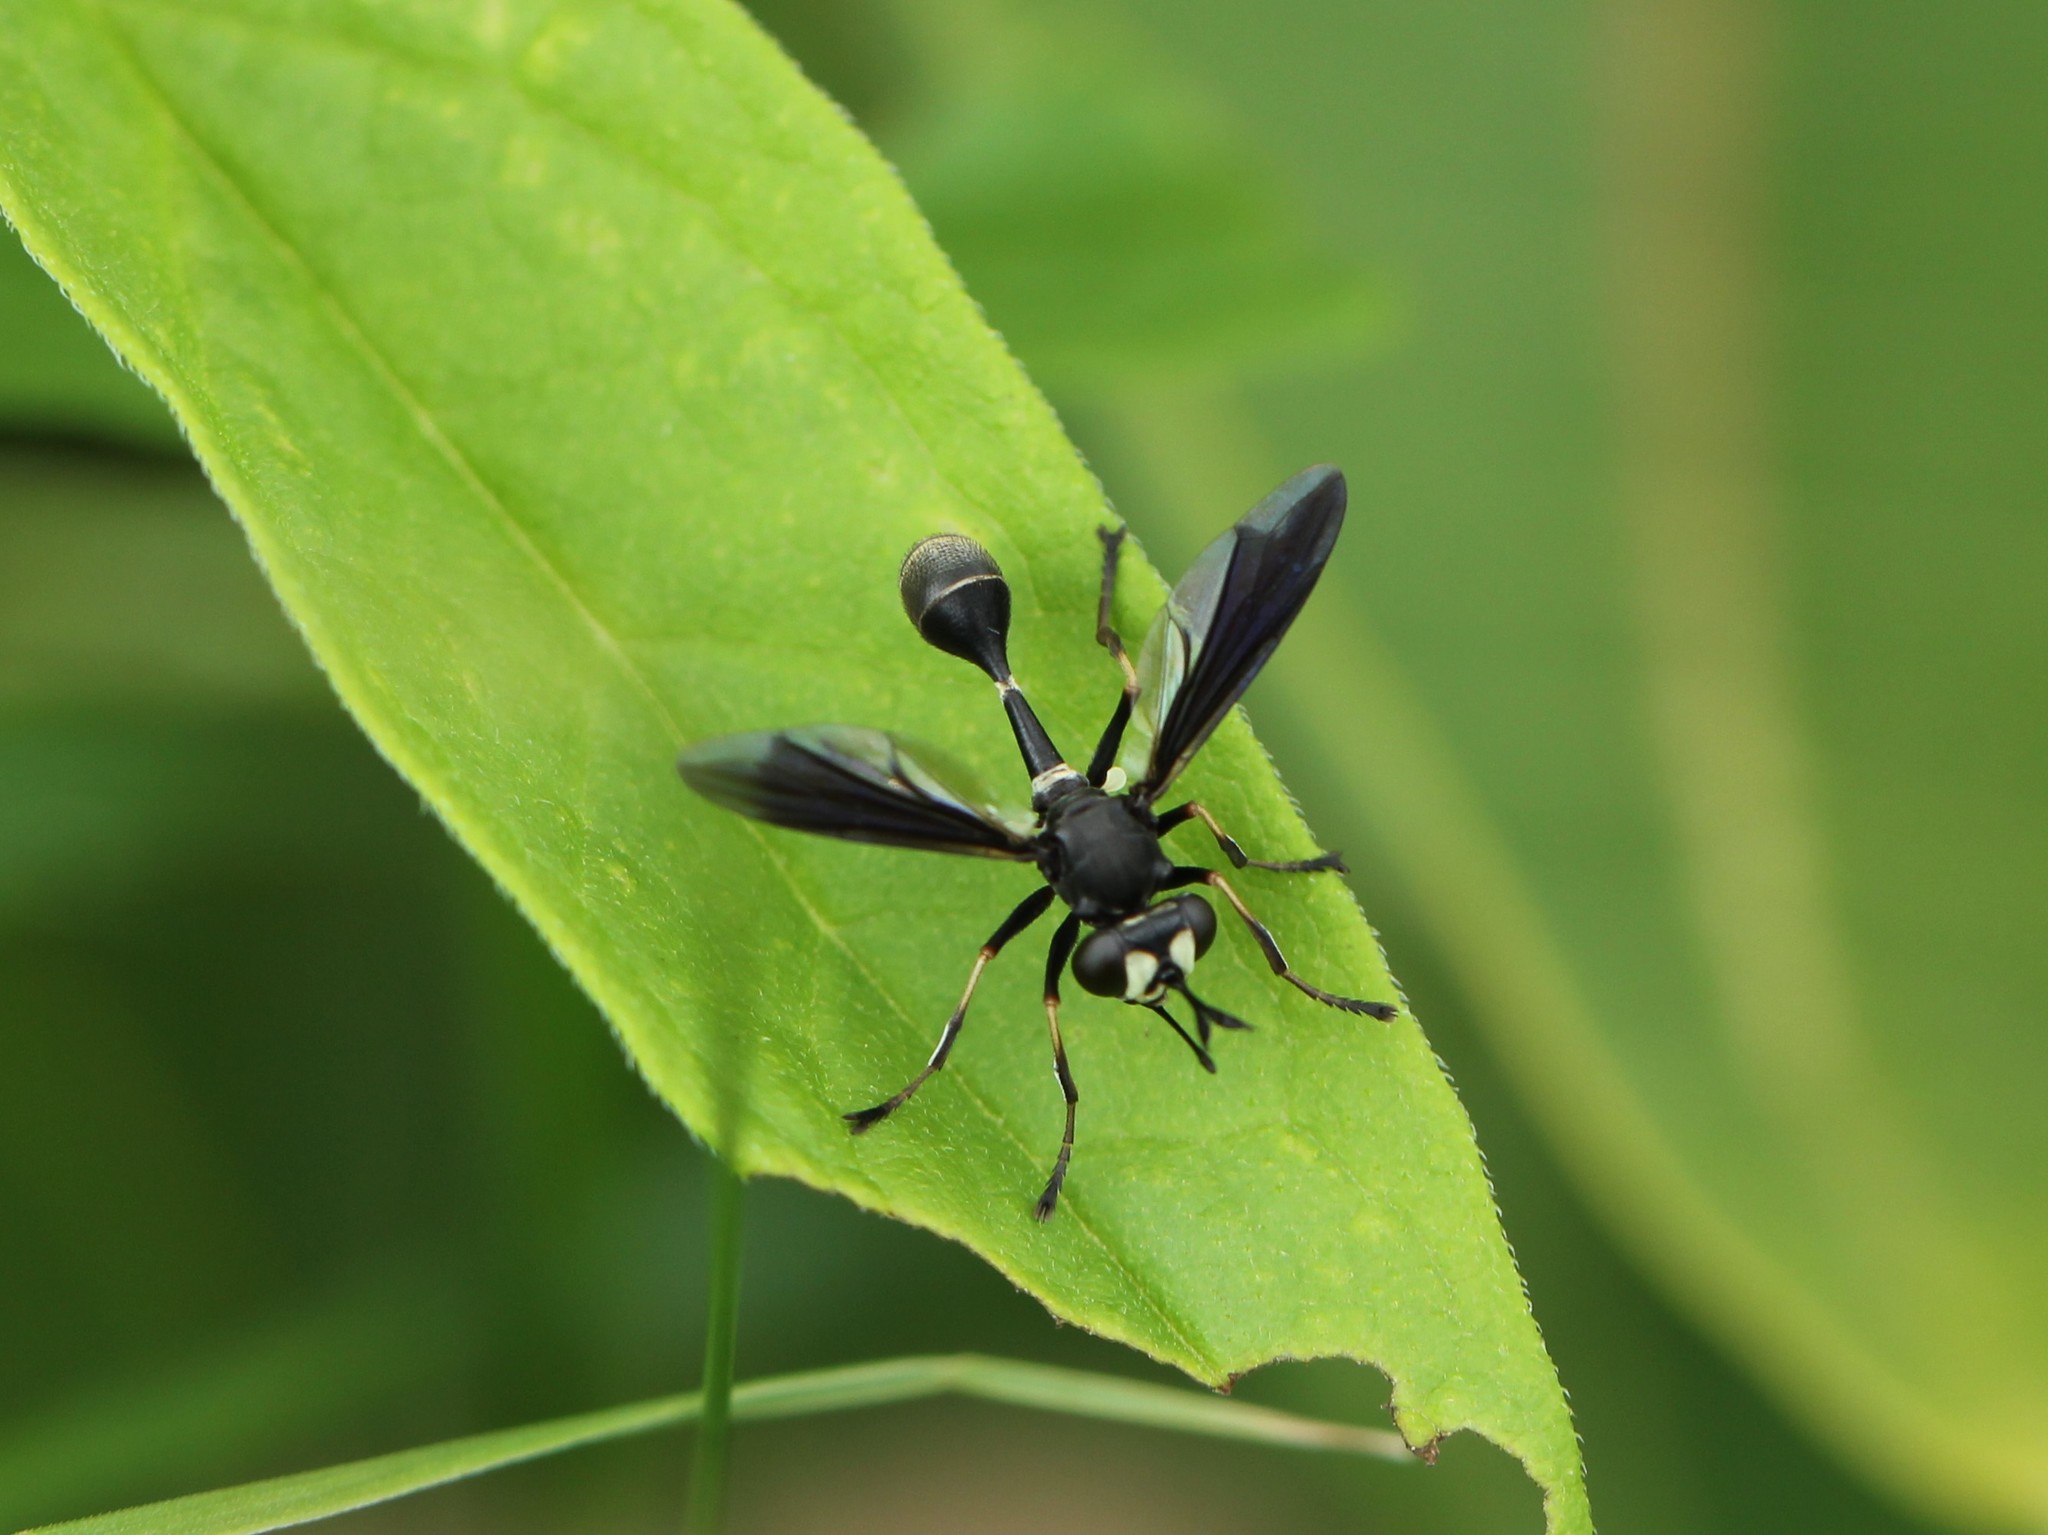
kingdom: Animalia
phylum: Arthropoda
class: Insecta
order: Diptera
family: Conopidae
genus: Physocephala
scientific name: Physocephala tibialis
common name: Common eastern physocephala
